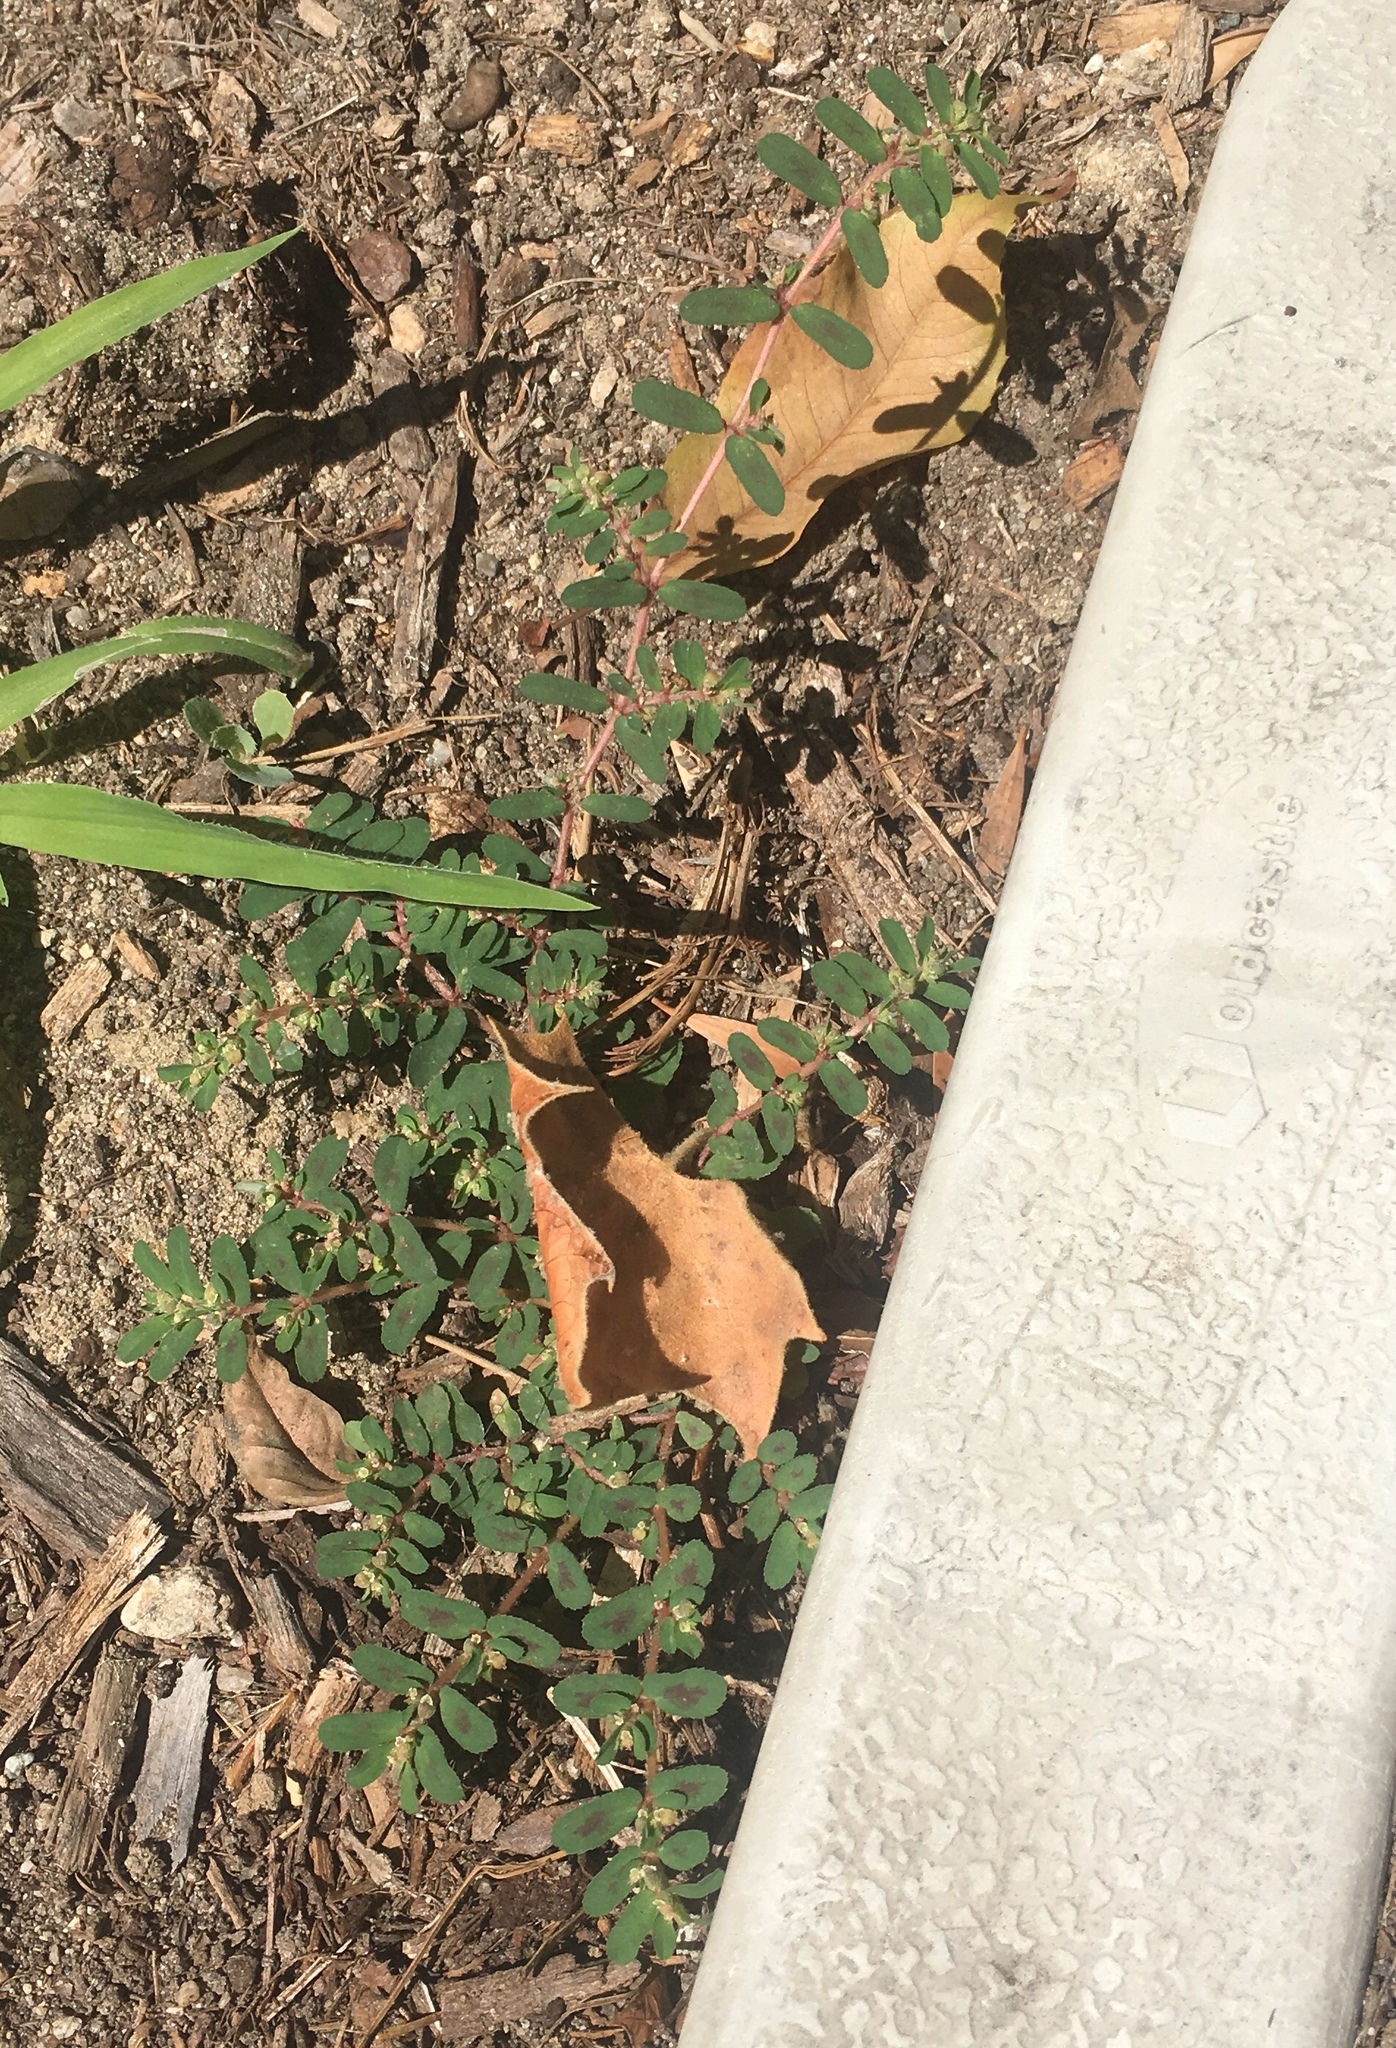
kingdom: Plantae
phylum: Tracheophyta
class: Magnoliopsida
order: Malpighiales
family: Euphorbiaceae
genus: Euphorbia
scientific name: Euphorbia maculata
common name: Spotted spurge
